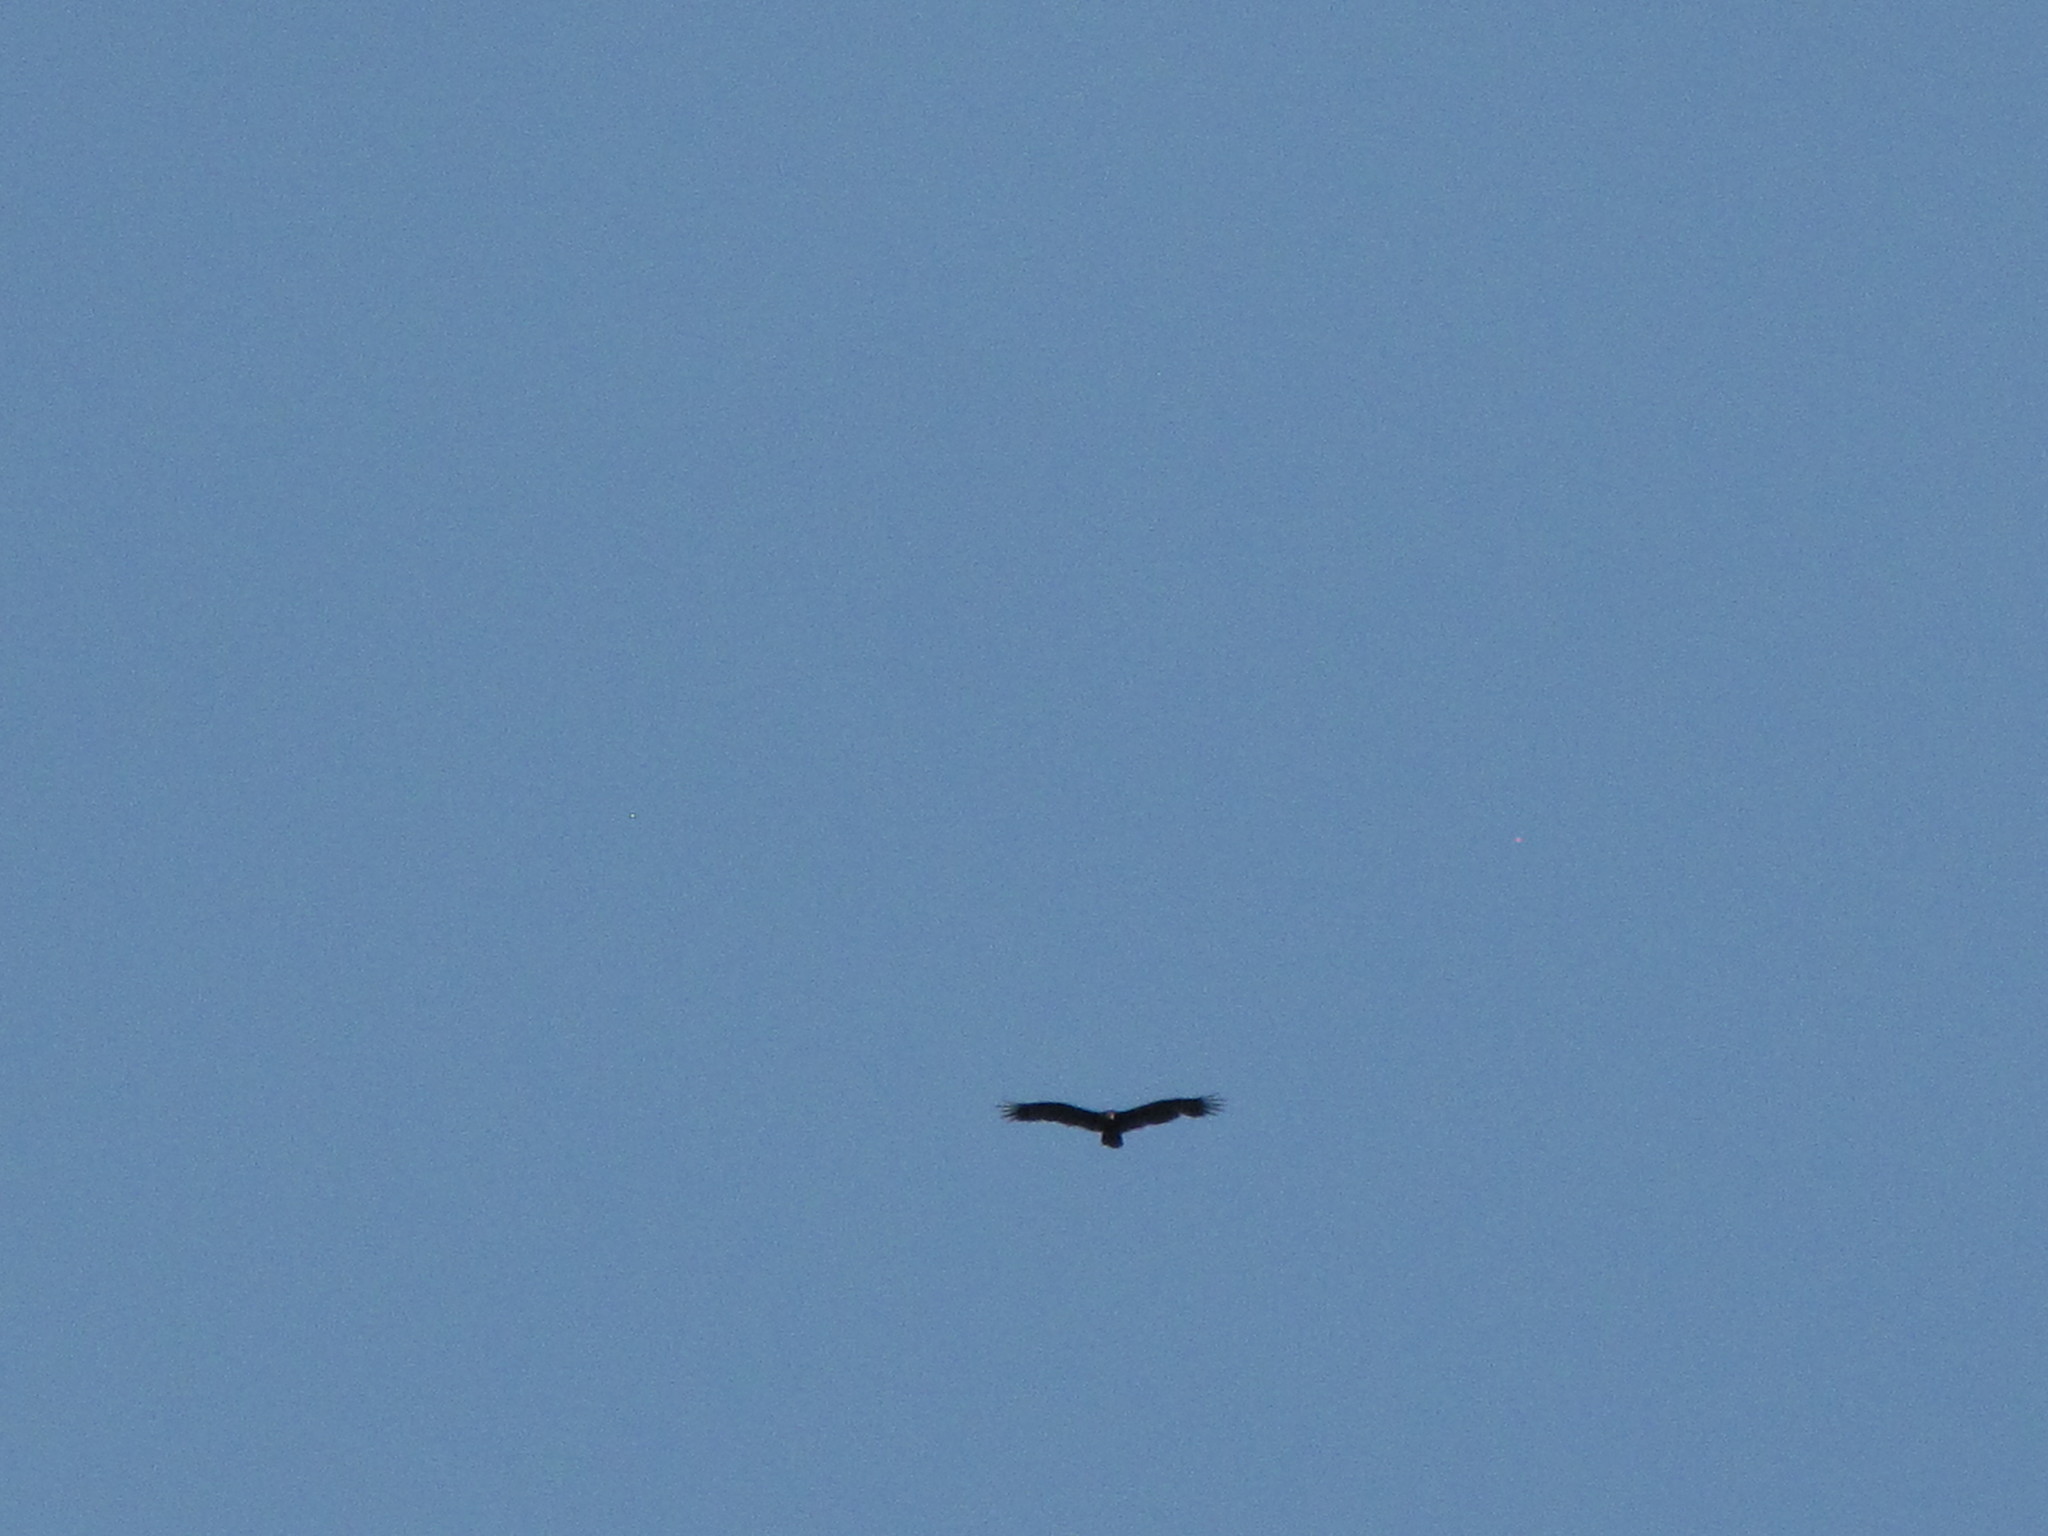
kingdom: Animalia
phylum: Chordata
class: Aves
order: Accipitriformes
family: Cathartidae
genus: Cathartes
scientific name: Cathartes aura
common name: Turkey vulture
